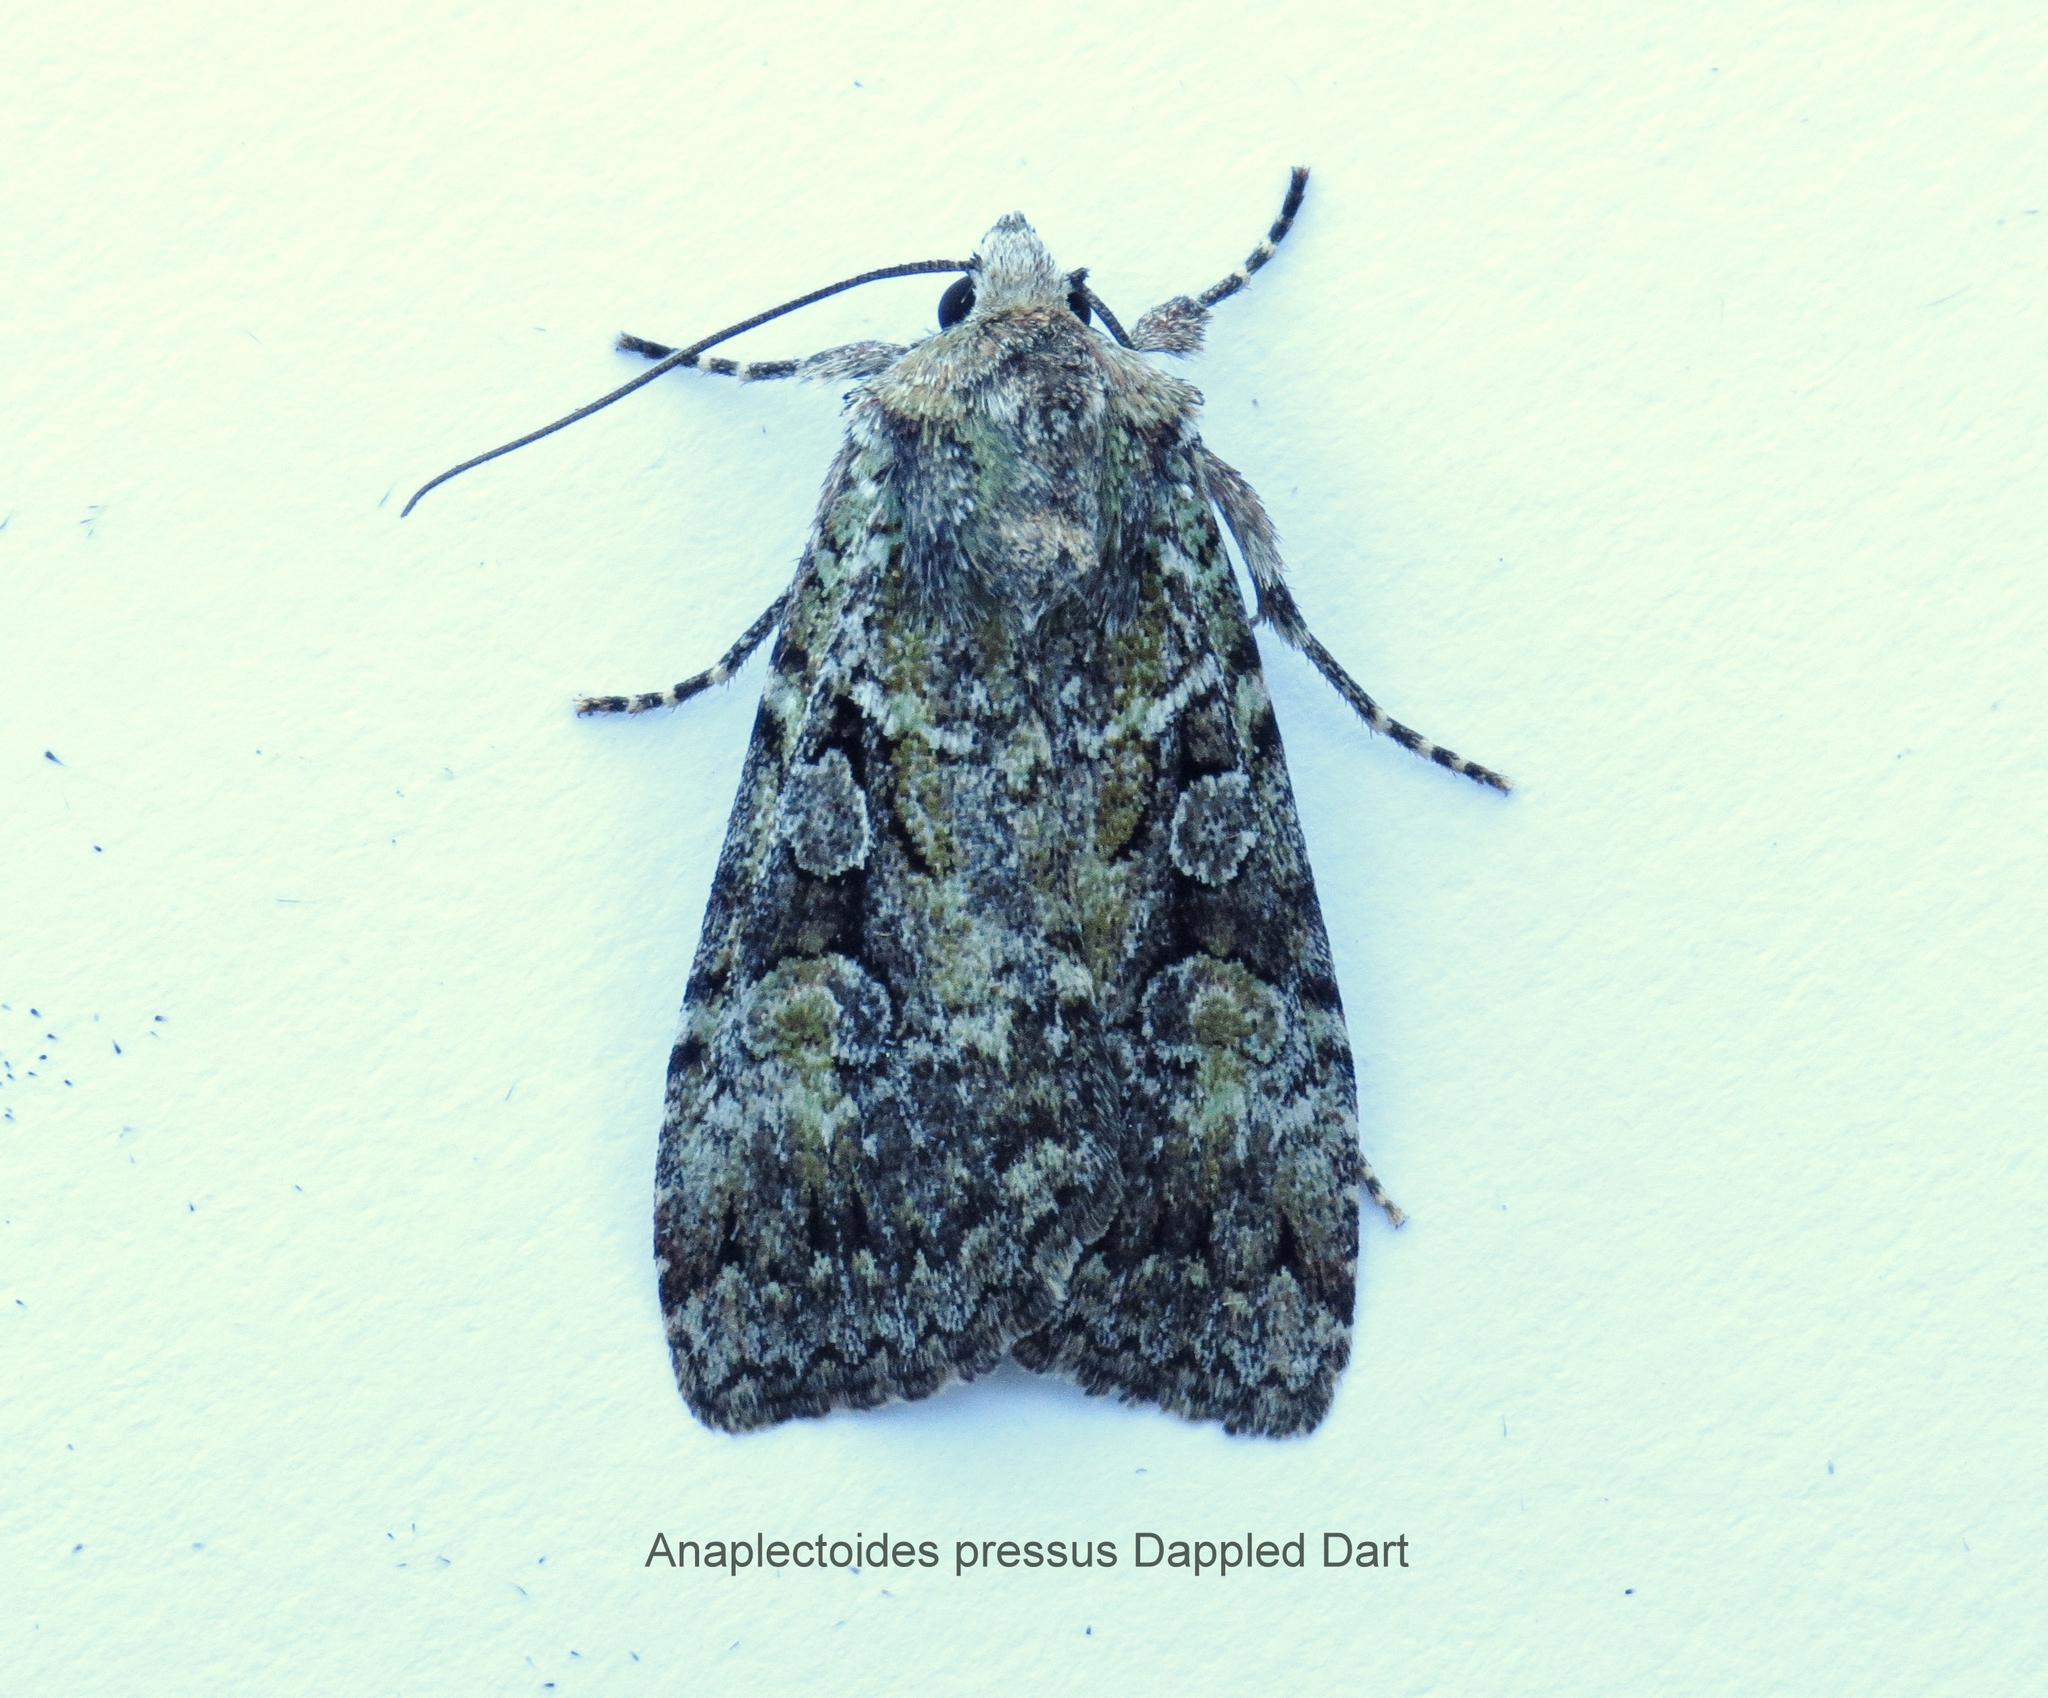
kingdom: Animalia
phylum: Arthropoda
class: Insecta
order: Lepidoptera
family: Noctuidae
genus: Anaplectoides
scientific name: Anaplectoides pressus
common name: Dappled dart
